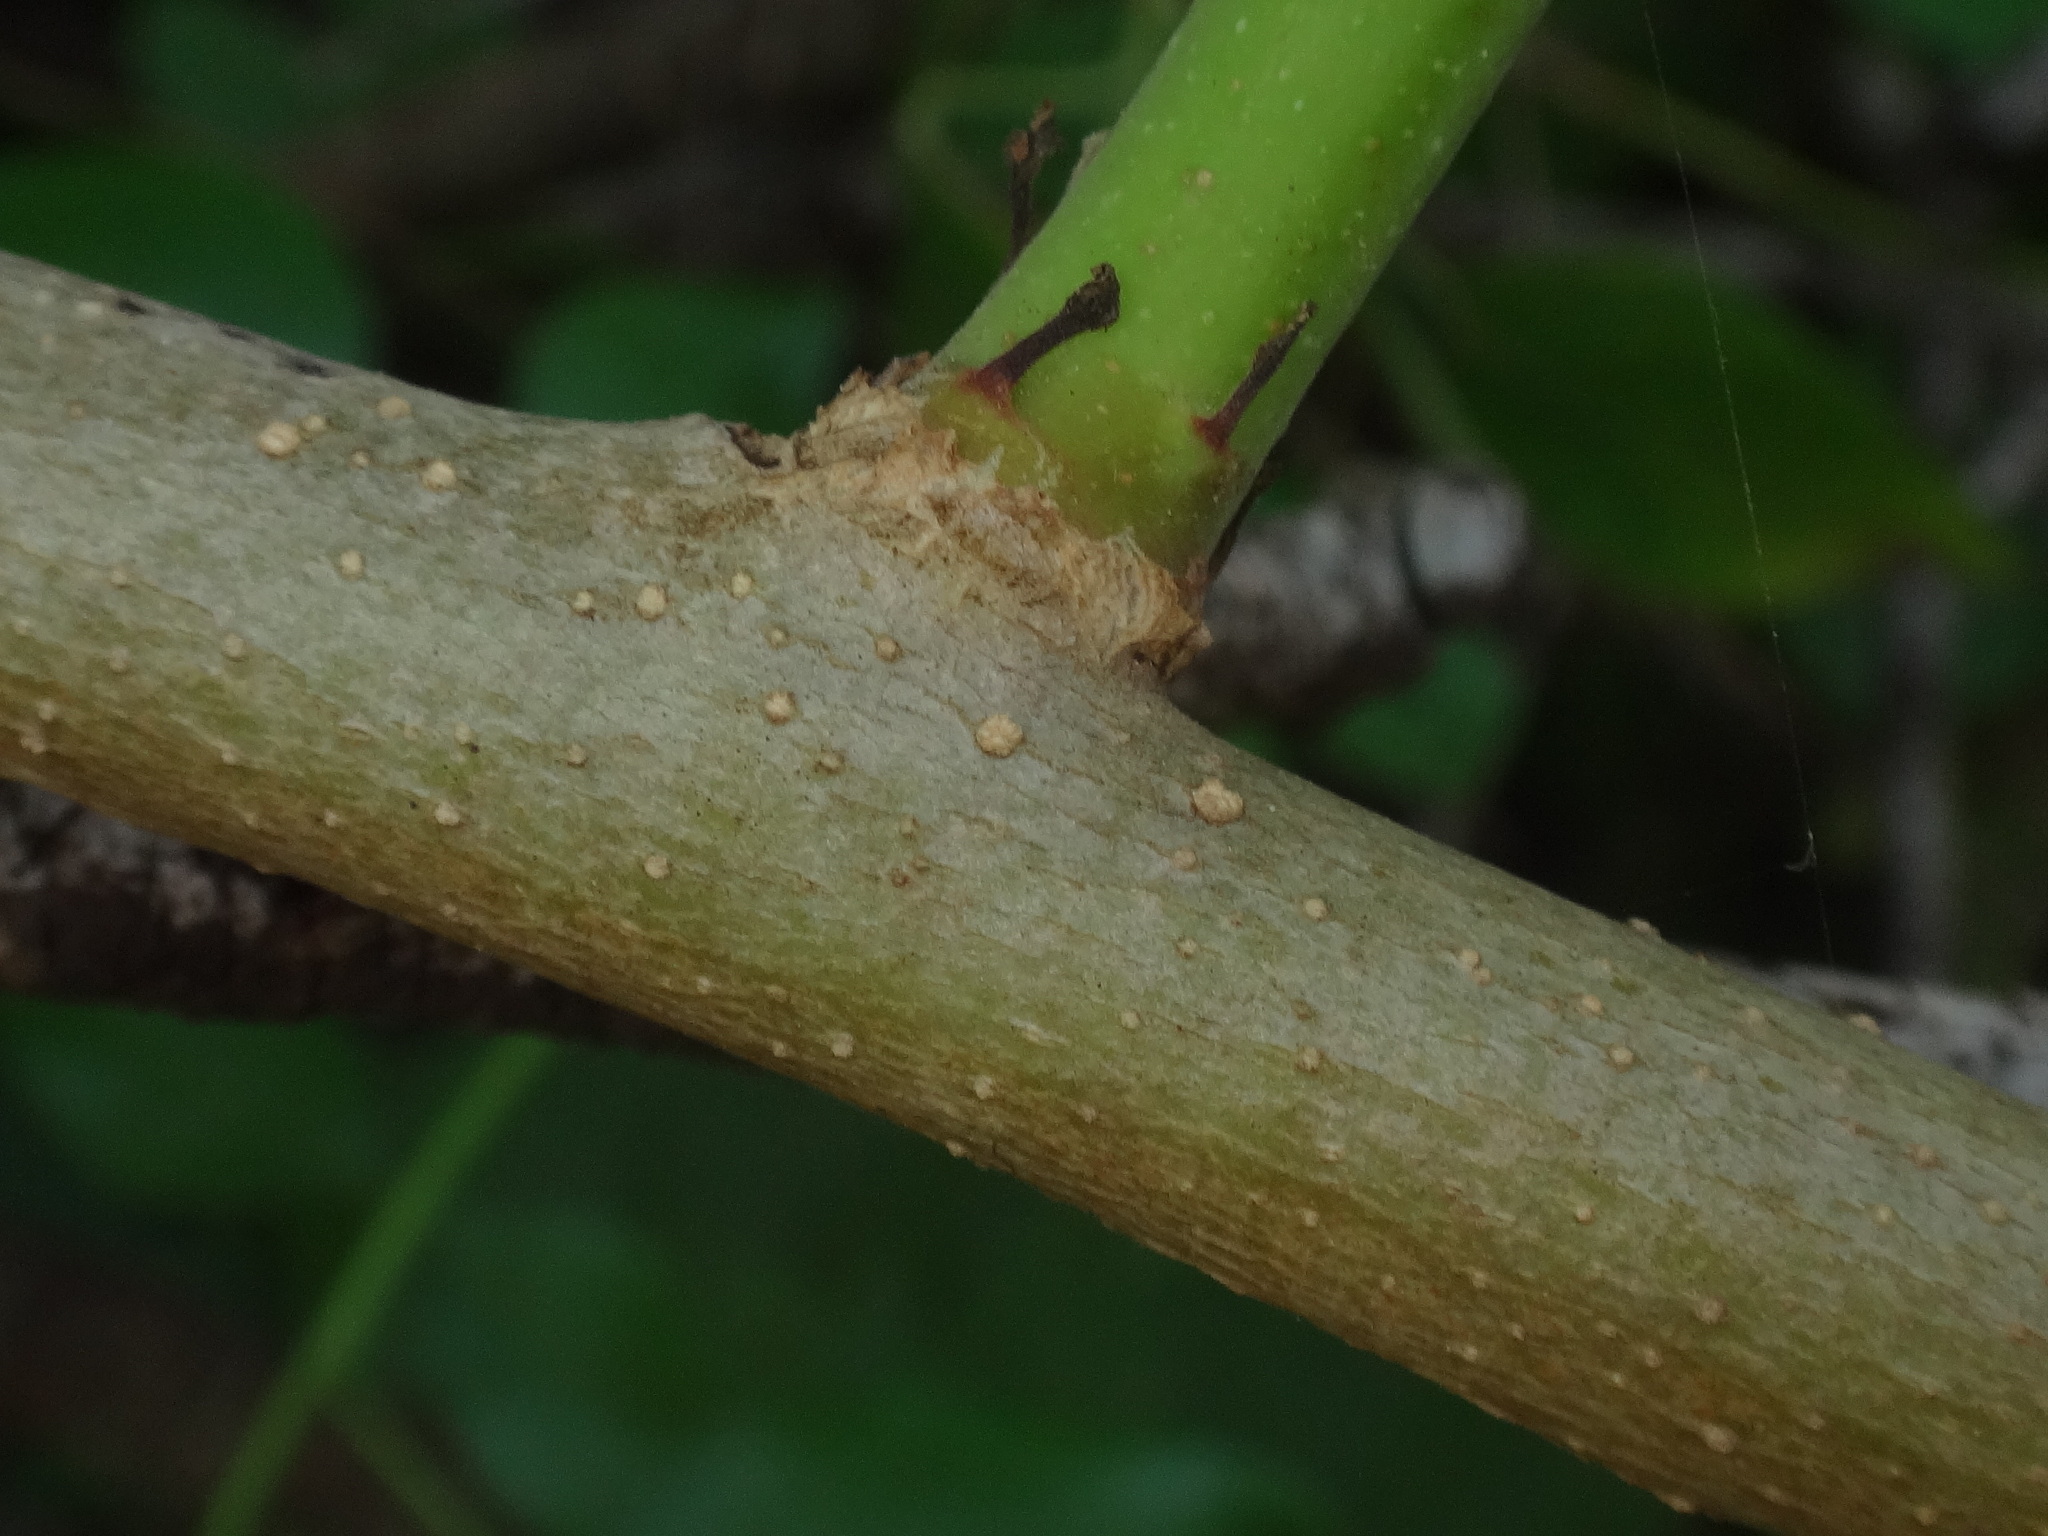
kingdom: Plantae
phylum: Tracheophyta
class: Magnoliopsida
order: Lamiales
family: Oleaceae
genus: Chrysojasminum
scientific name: Chrysojasminum odoratissimum
